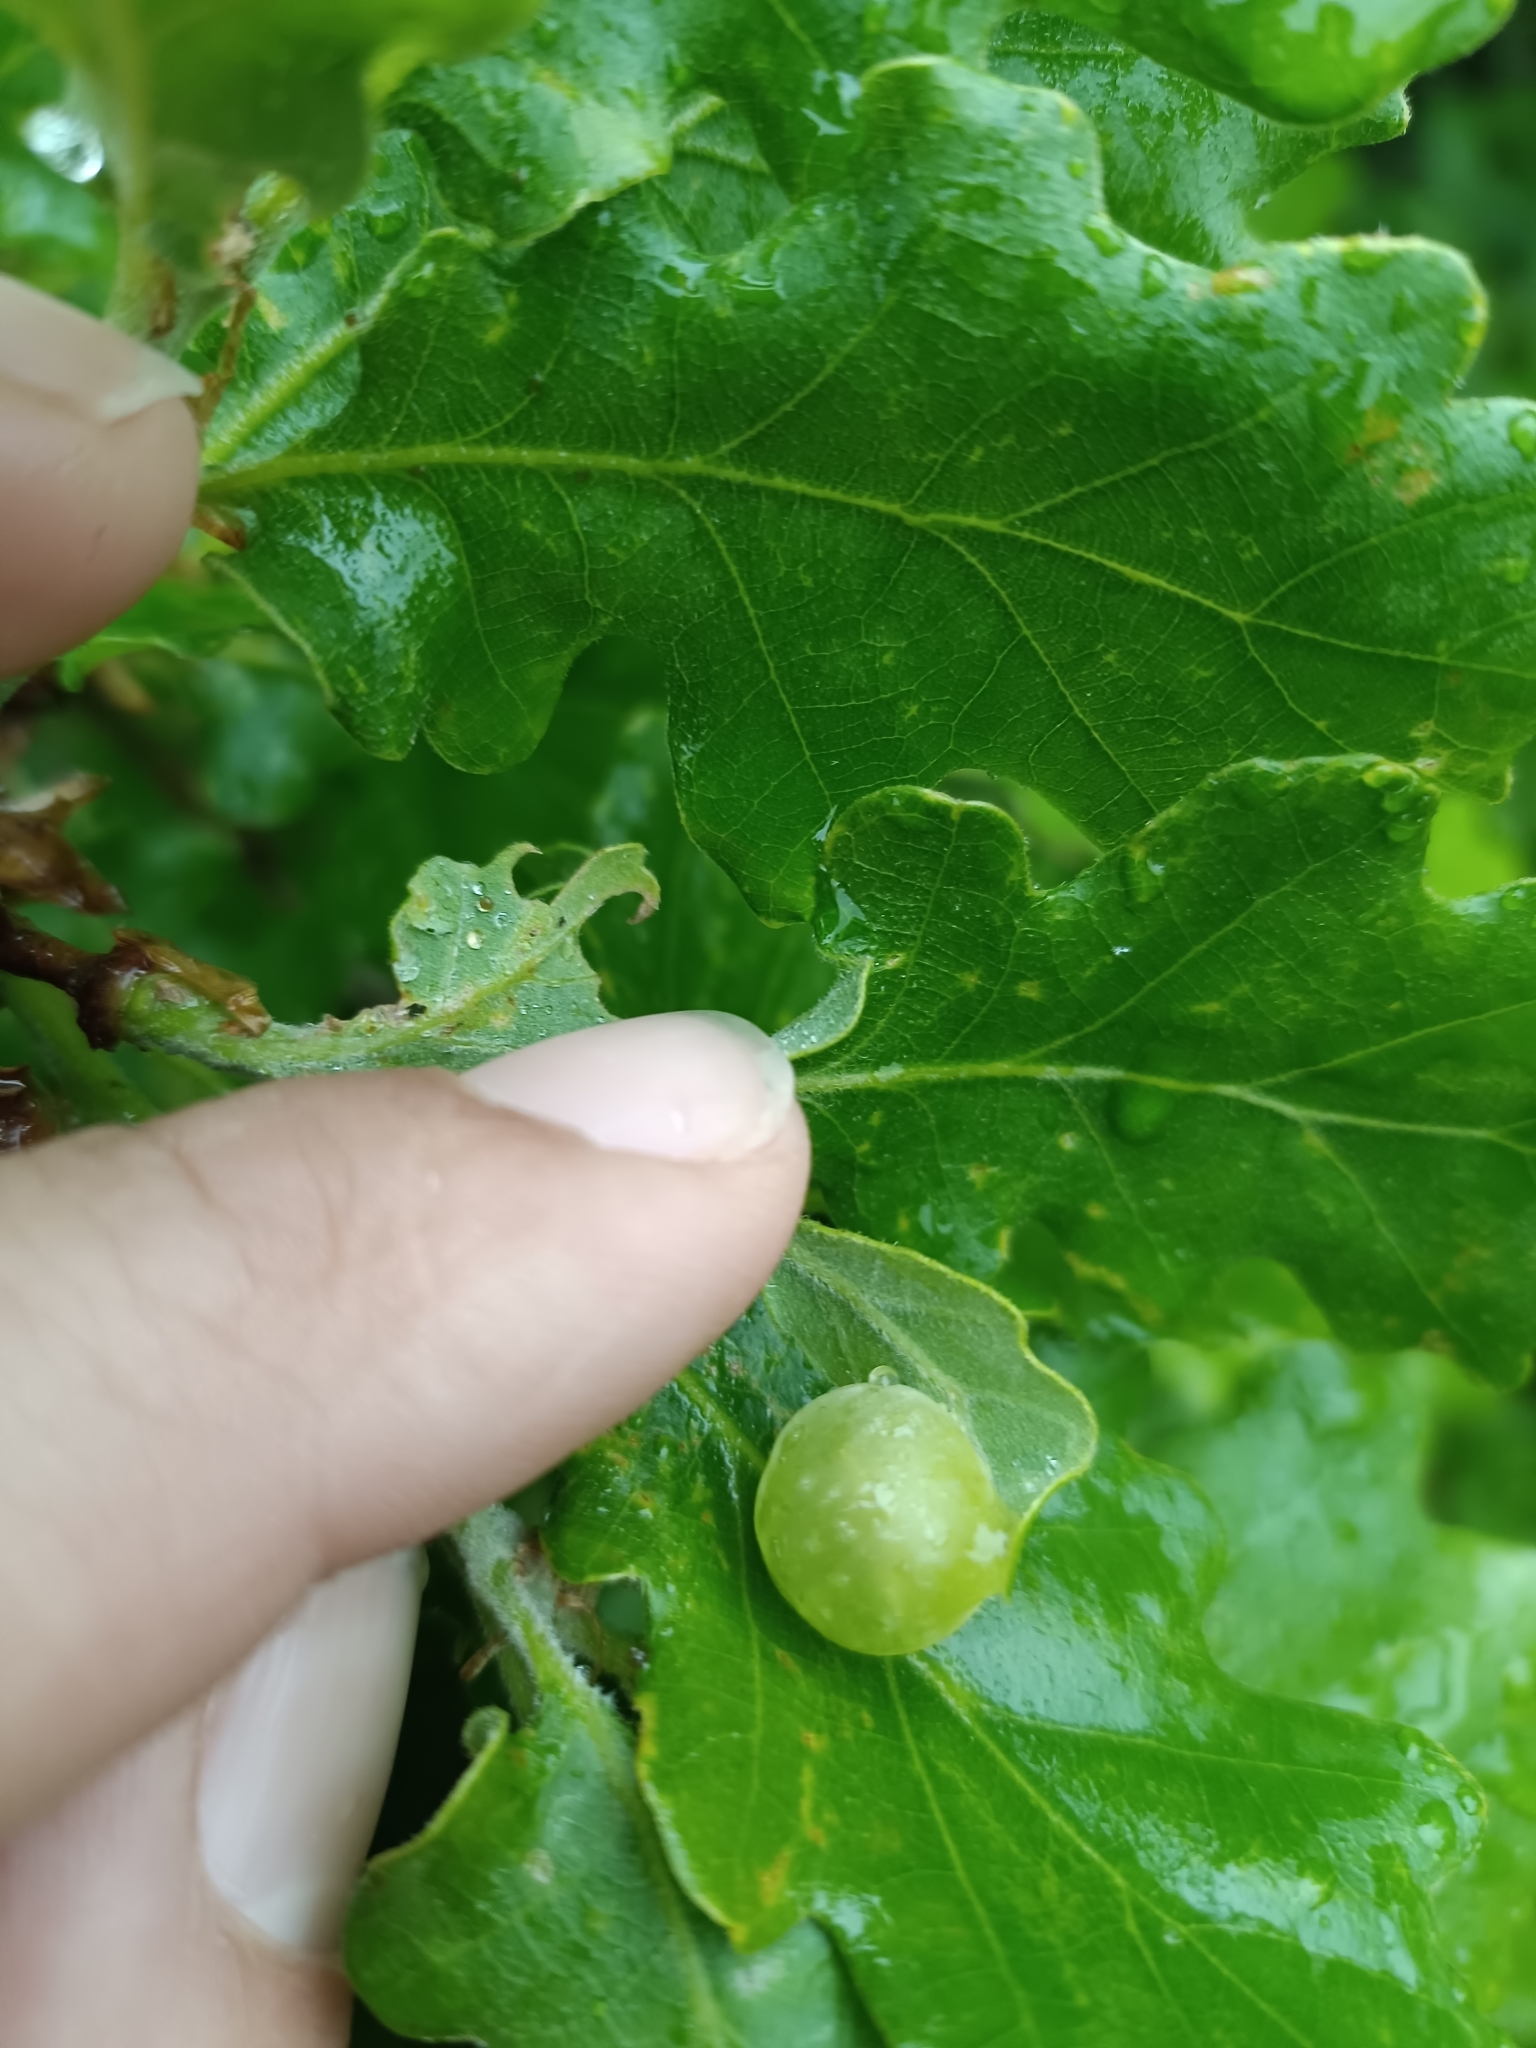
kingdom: Animalia
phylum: Arthropoda
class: Insecta
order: Hymenoptera
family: Cynipidae
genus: Neuroterus
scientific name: Neuroterus quercusbaccarum
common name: Common spangle gall
